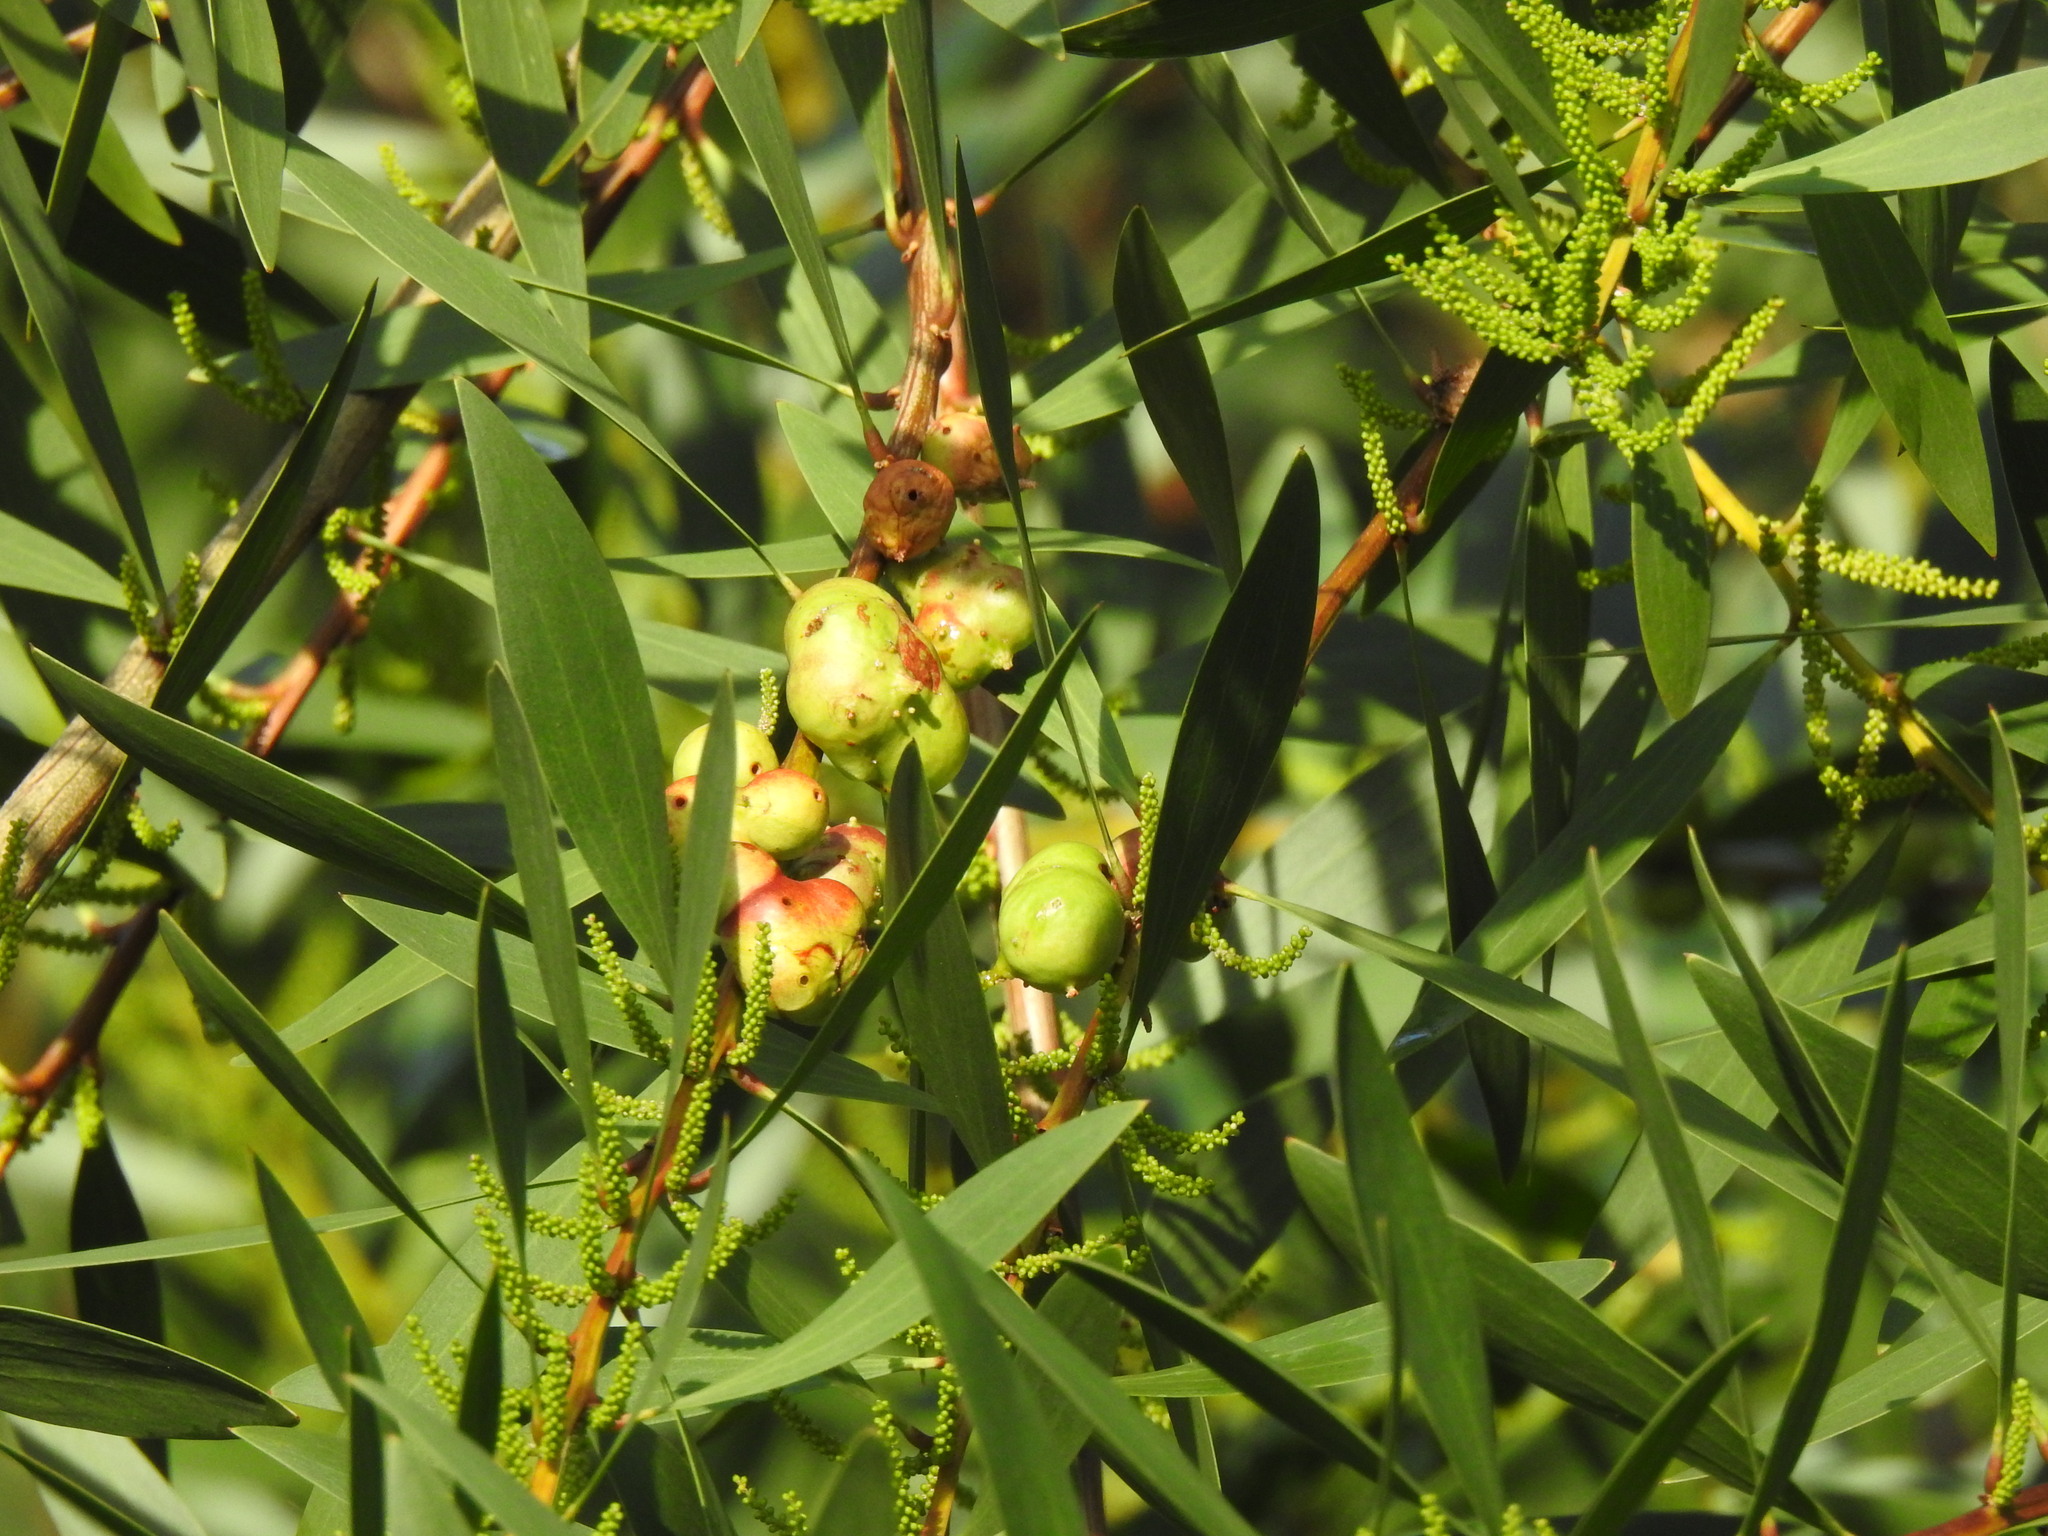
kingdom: Animalia
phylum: Arthropoda
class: Insecta
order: Hymenoptera
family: Pteromalidae
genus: Trichilogaster
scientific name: Trichilogaster acaciaelongifoliae
